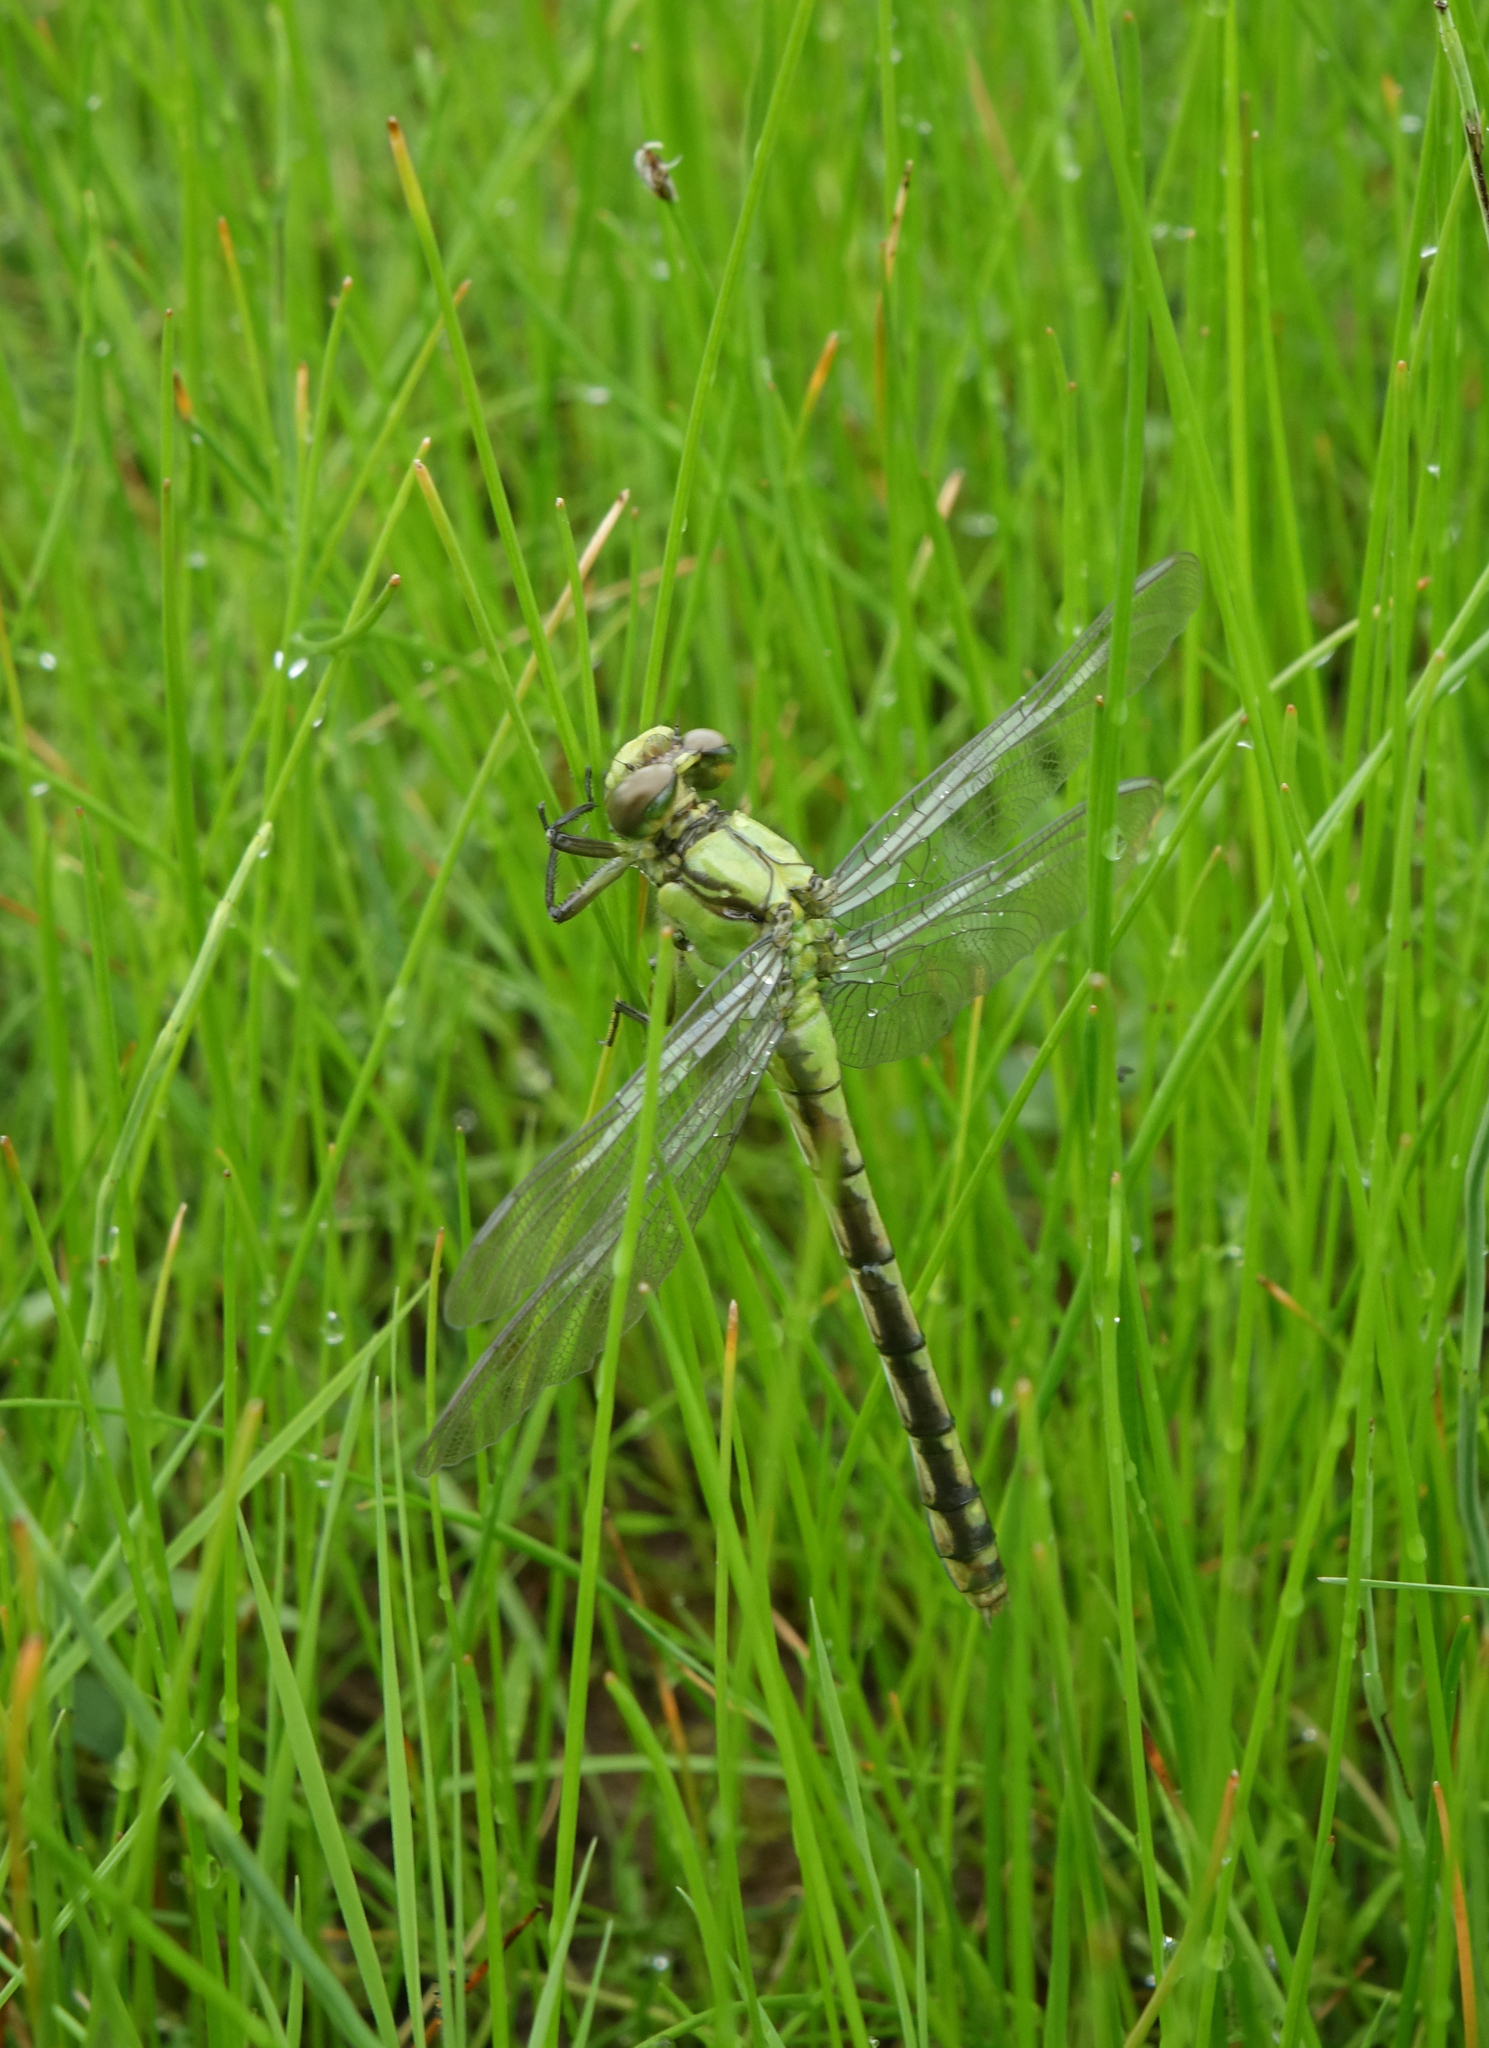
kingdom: Animalia
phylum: Arthropoda
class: Insecta
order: Odonata
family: Gomphidae
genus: Ophiogomphus
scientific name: Ophiogomphus obscurus
